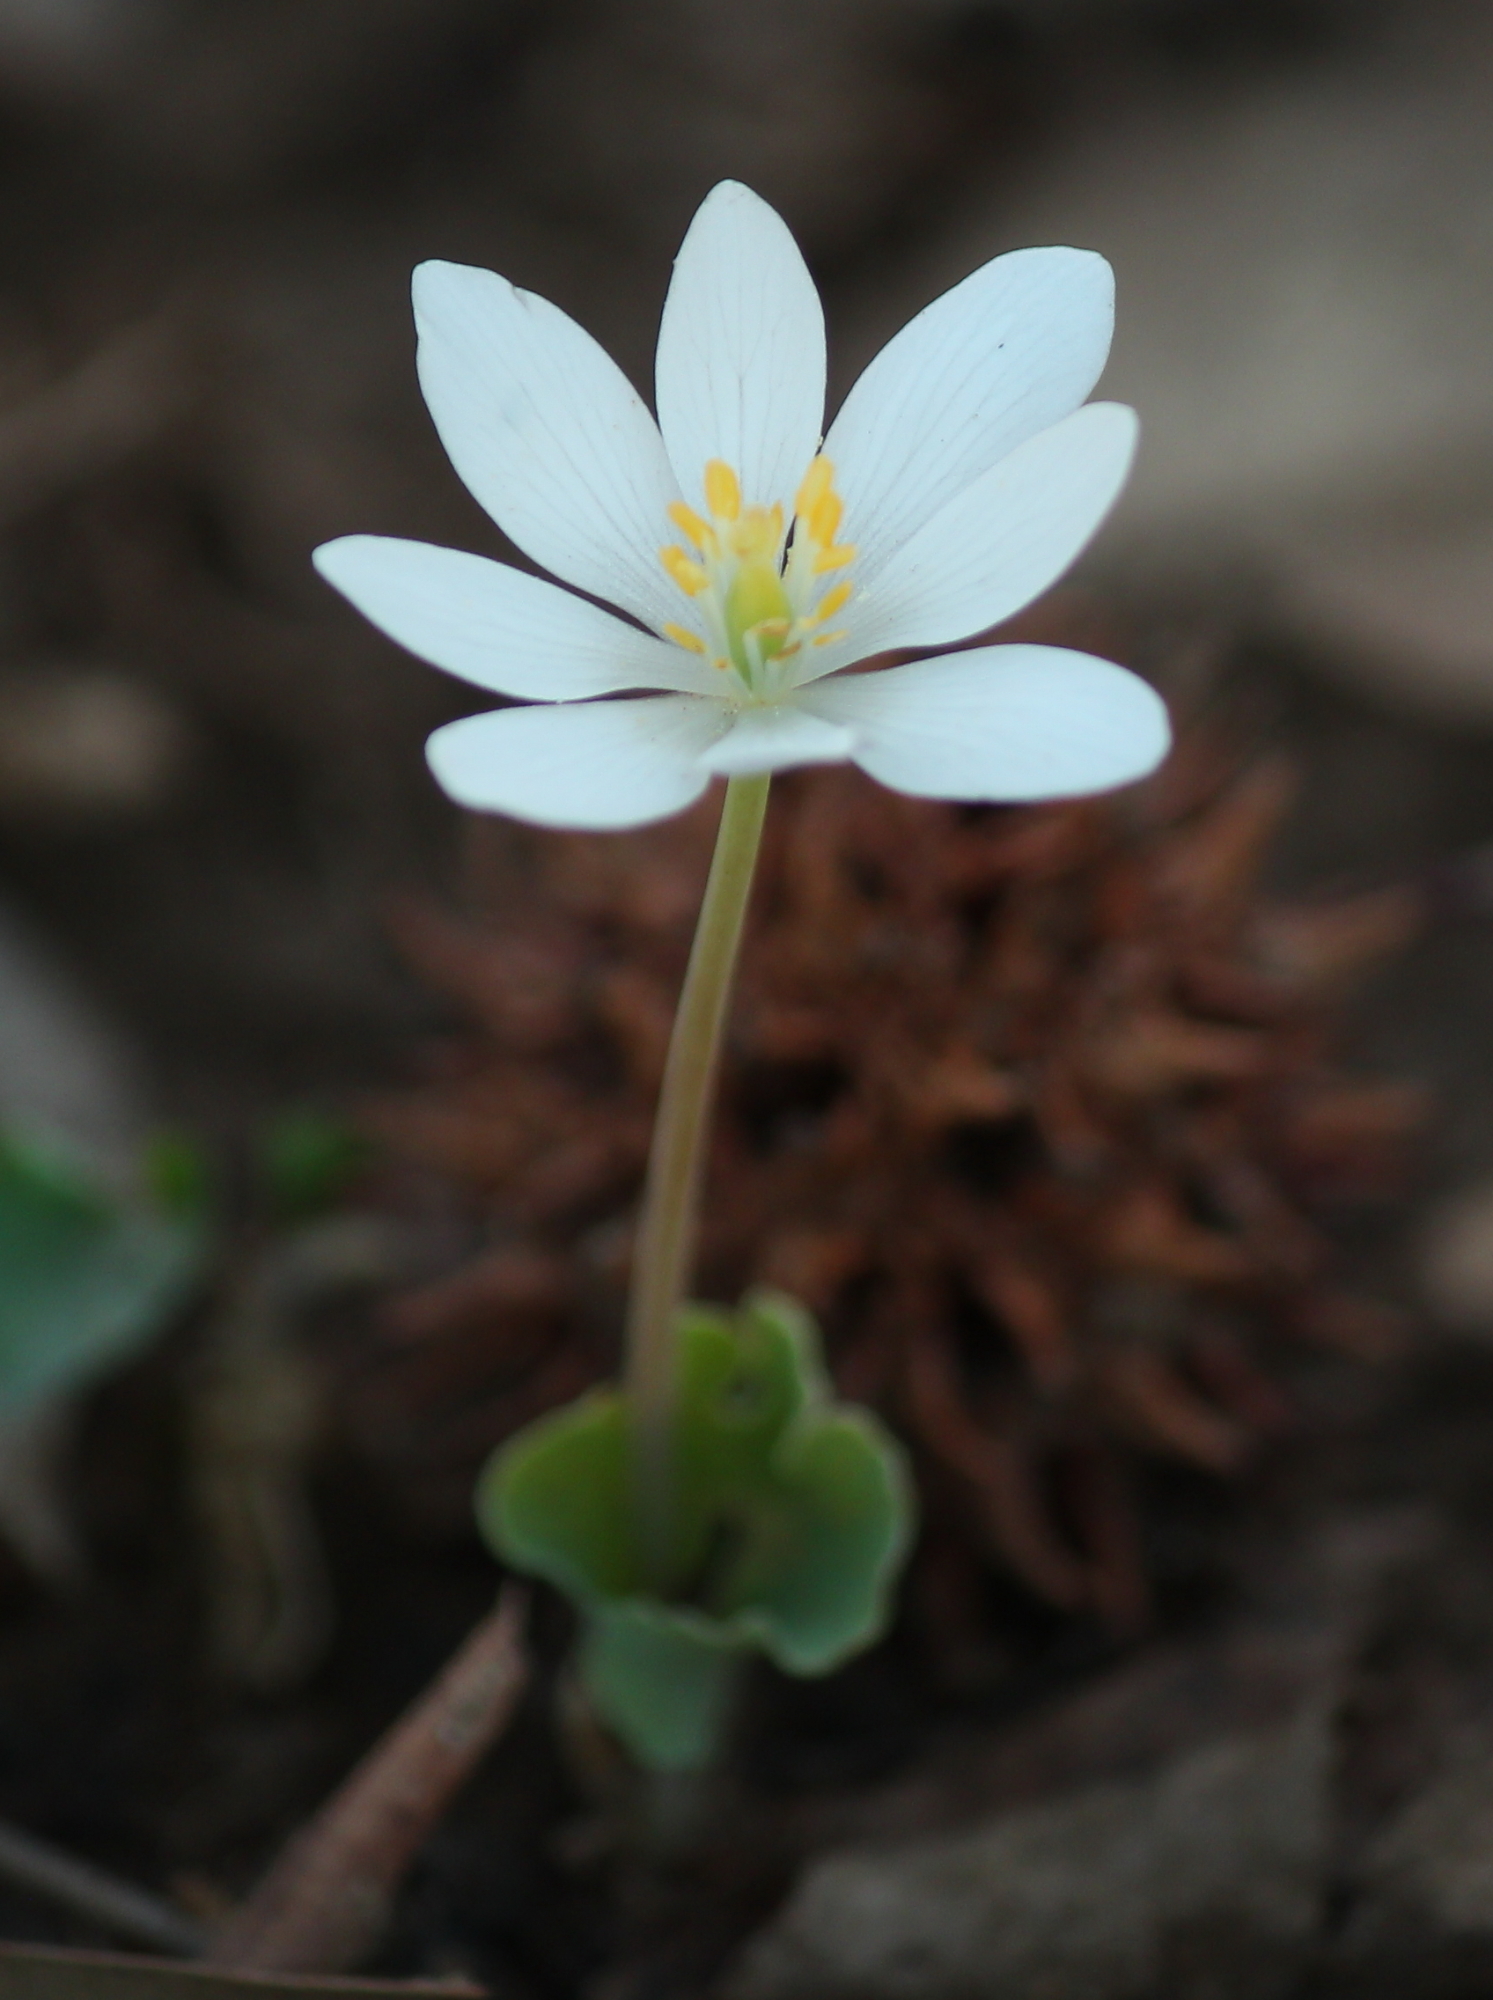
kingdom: Plantae
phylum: Tracheophyta
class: Magnoliopsida
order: Ranunculales
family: Papaveraceae
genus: Sanguinaria
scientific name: Sanguinaria canadensis
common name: Bloodroot
